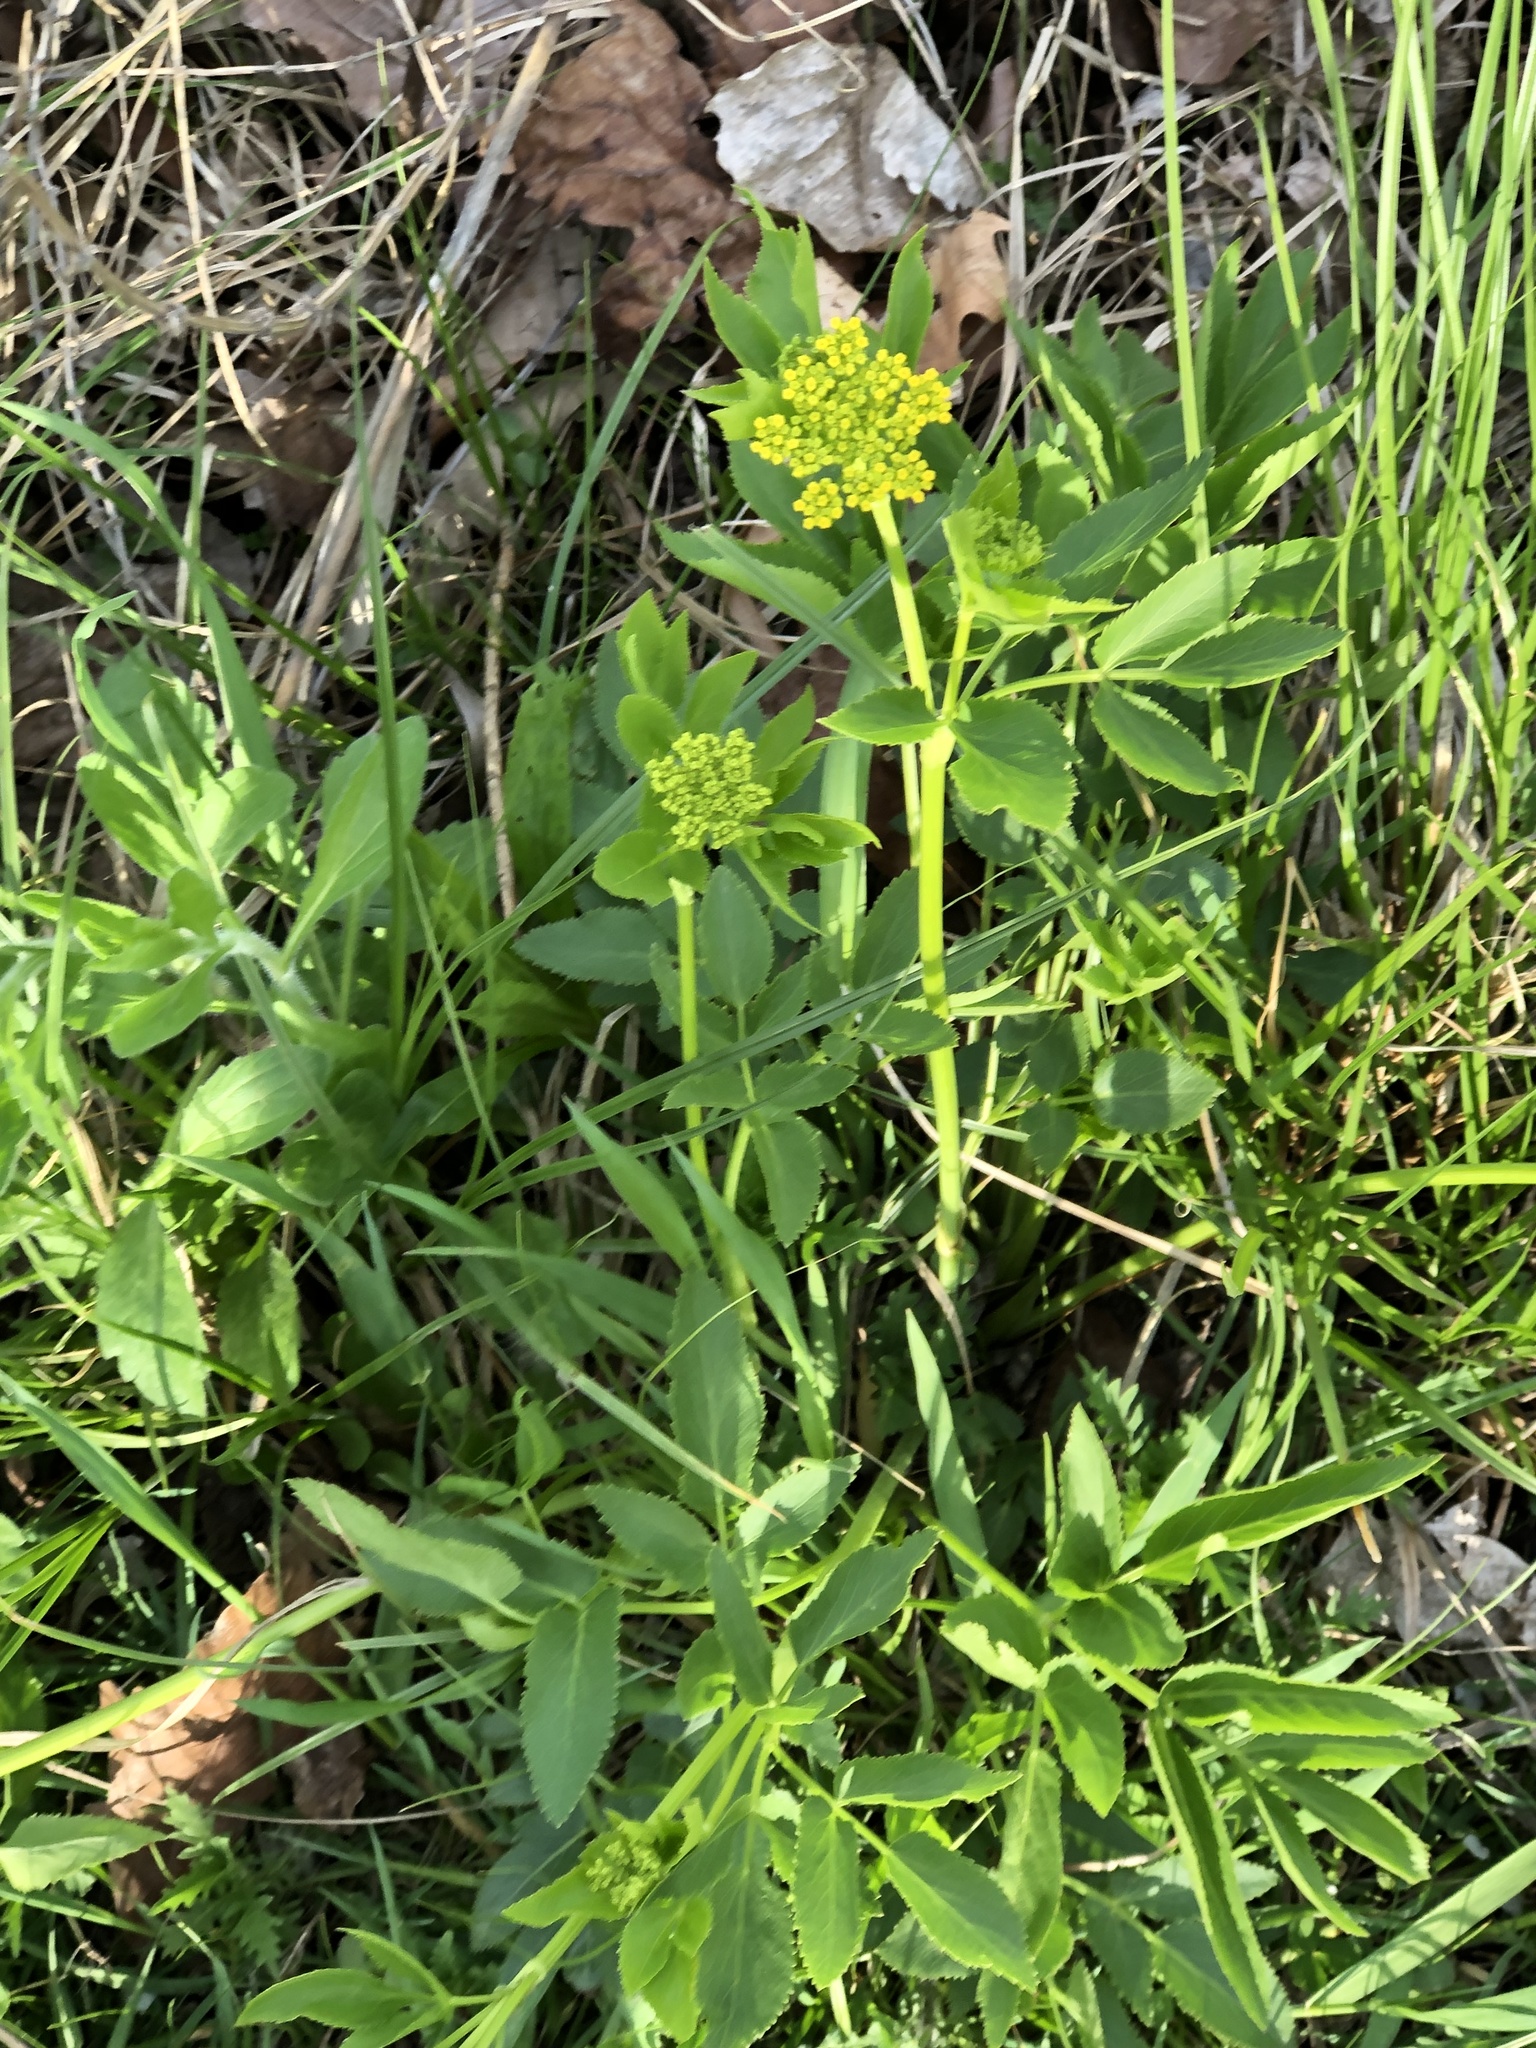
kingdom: Plantae
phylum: Tracheophyta
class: Magnoliopsida
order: Apiales
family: Apiaceae
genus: Zizia
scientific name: Zizia aurea
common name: Golden alexanders
